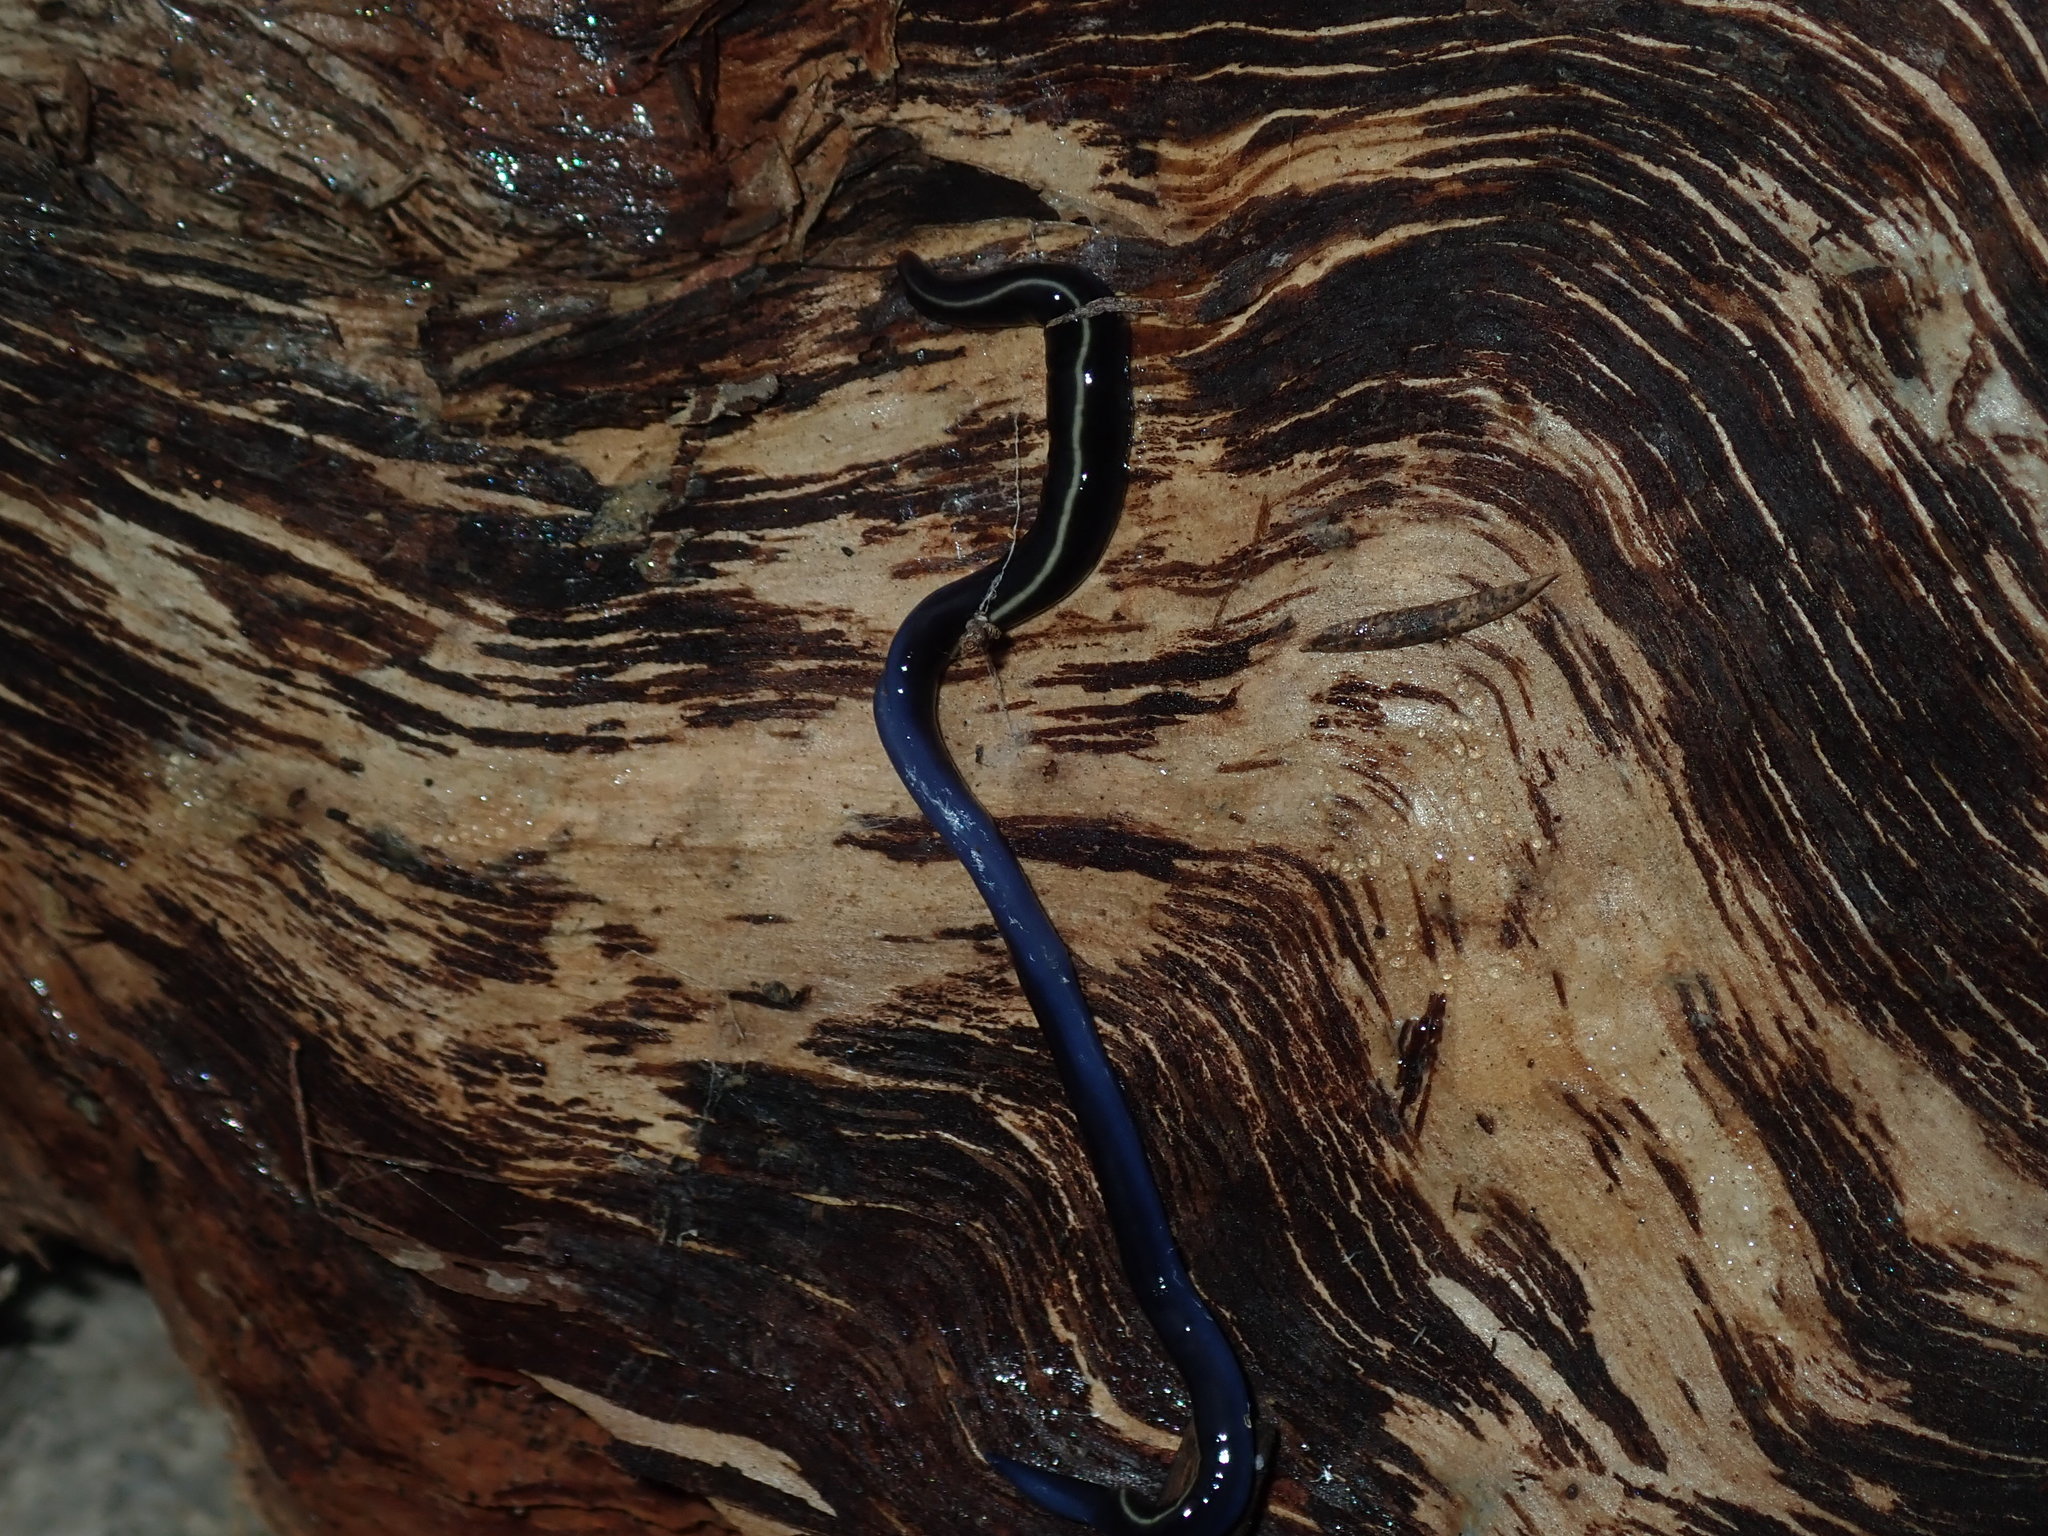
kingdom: Animalia
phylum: Platyhelminthes
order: Tricladida
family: Geoplanidae
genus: Caenoplana
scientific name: Caenoplana coerulea
